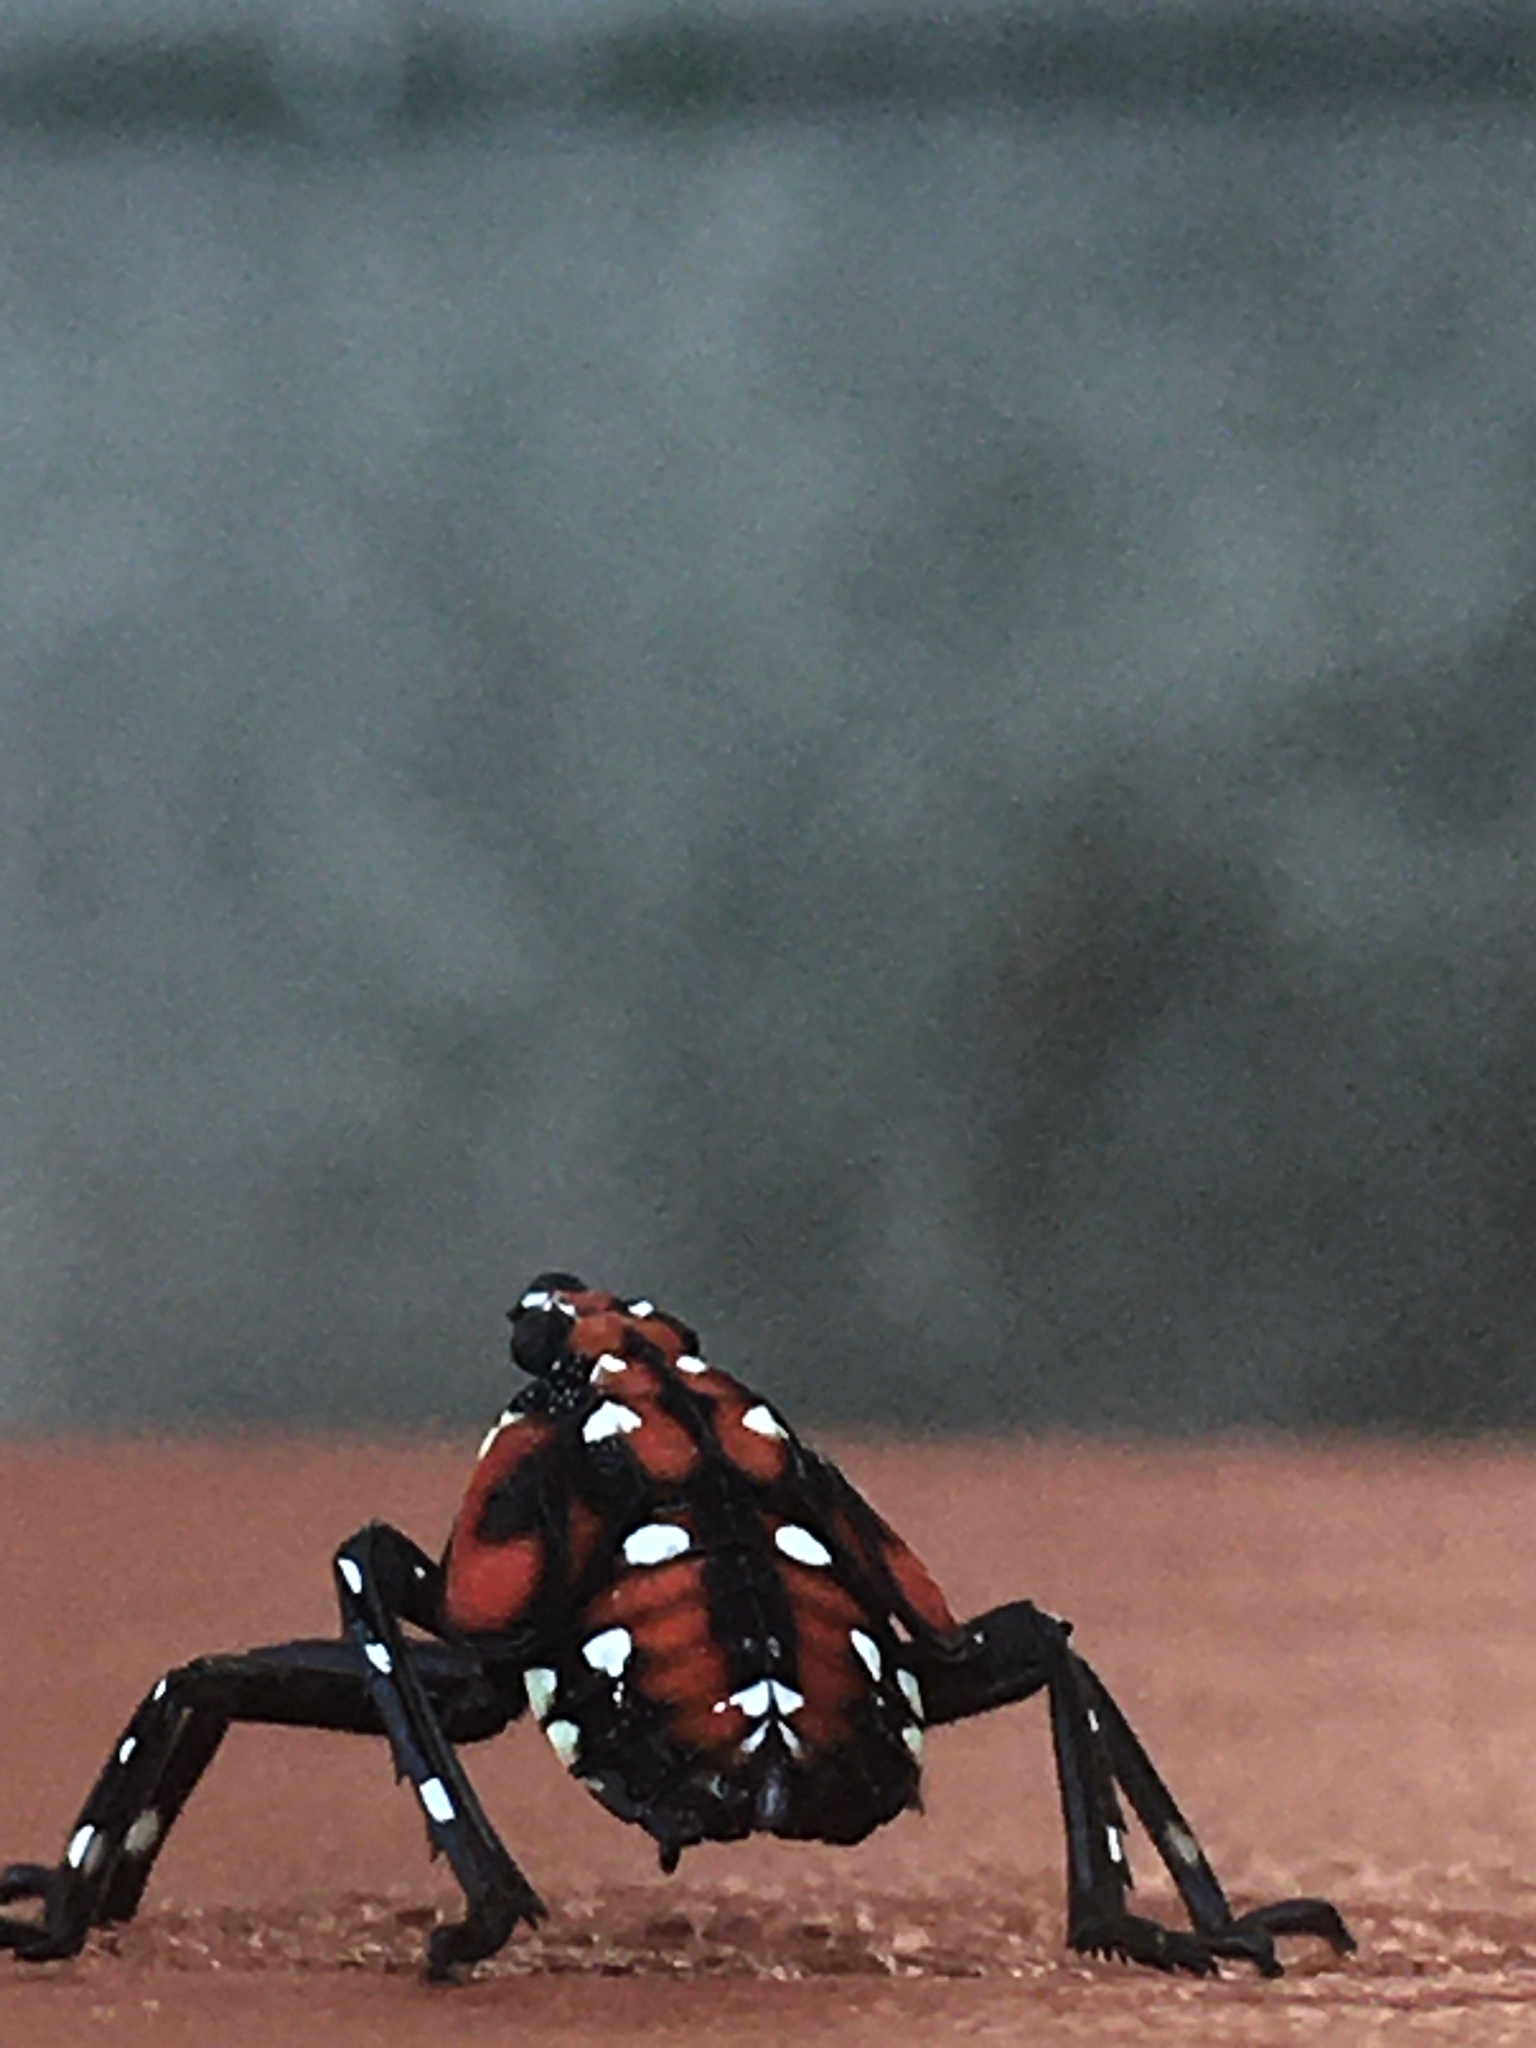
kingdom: Animalia
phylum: Arthropoda
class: Insecta
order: Hemiptera
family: Fulgoridae
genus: Lycorma
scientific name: Lycorma delicatula
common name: Spotted lanternfly
